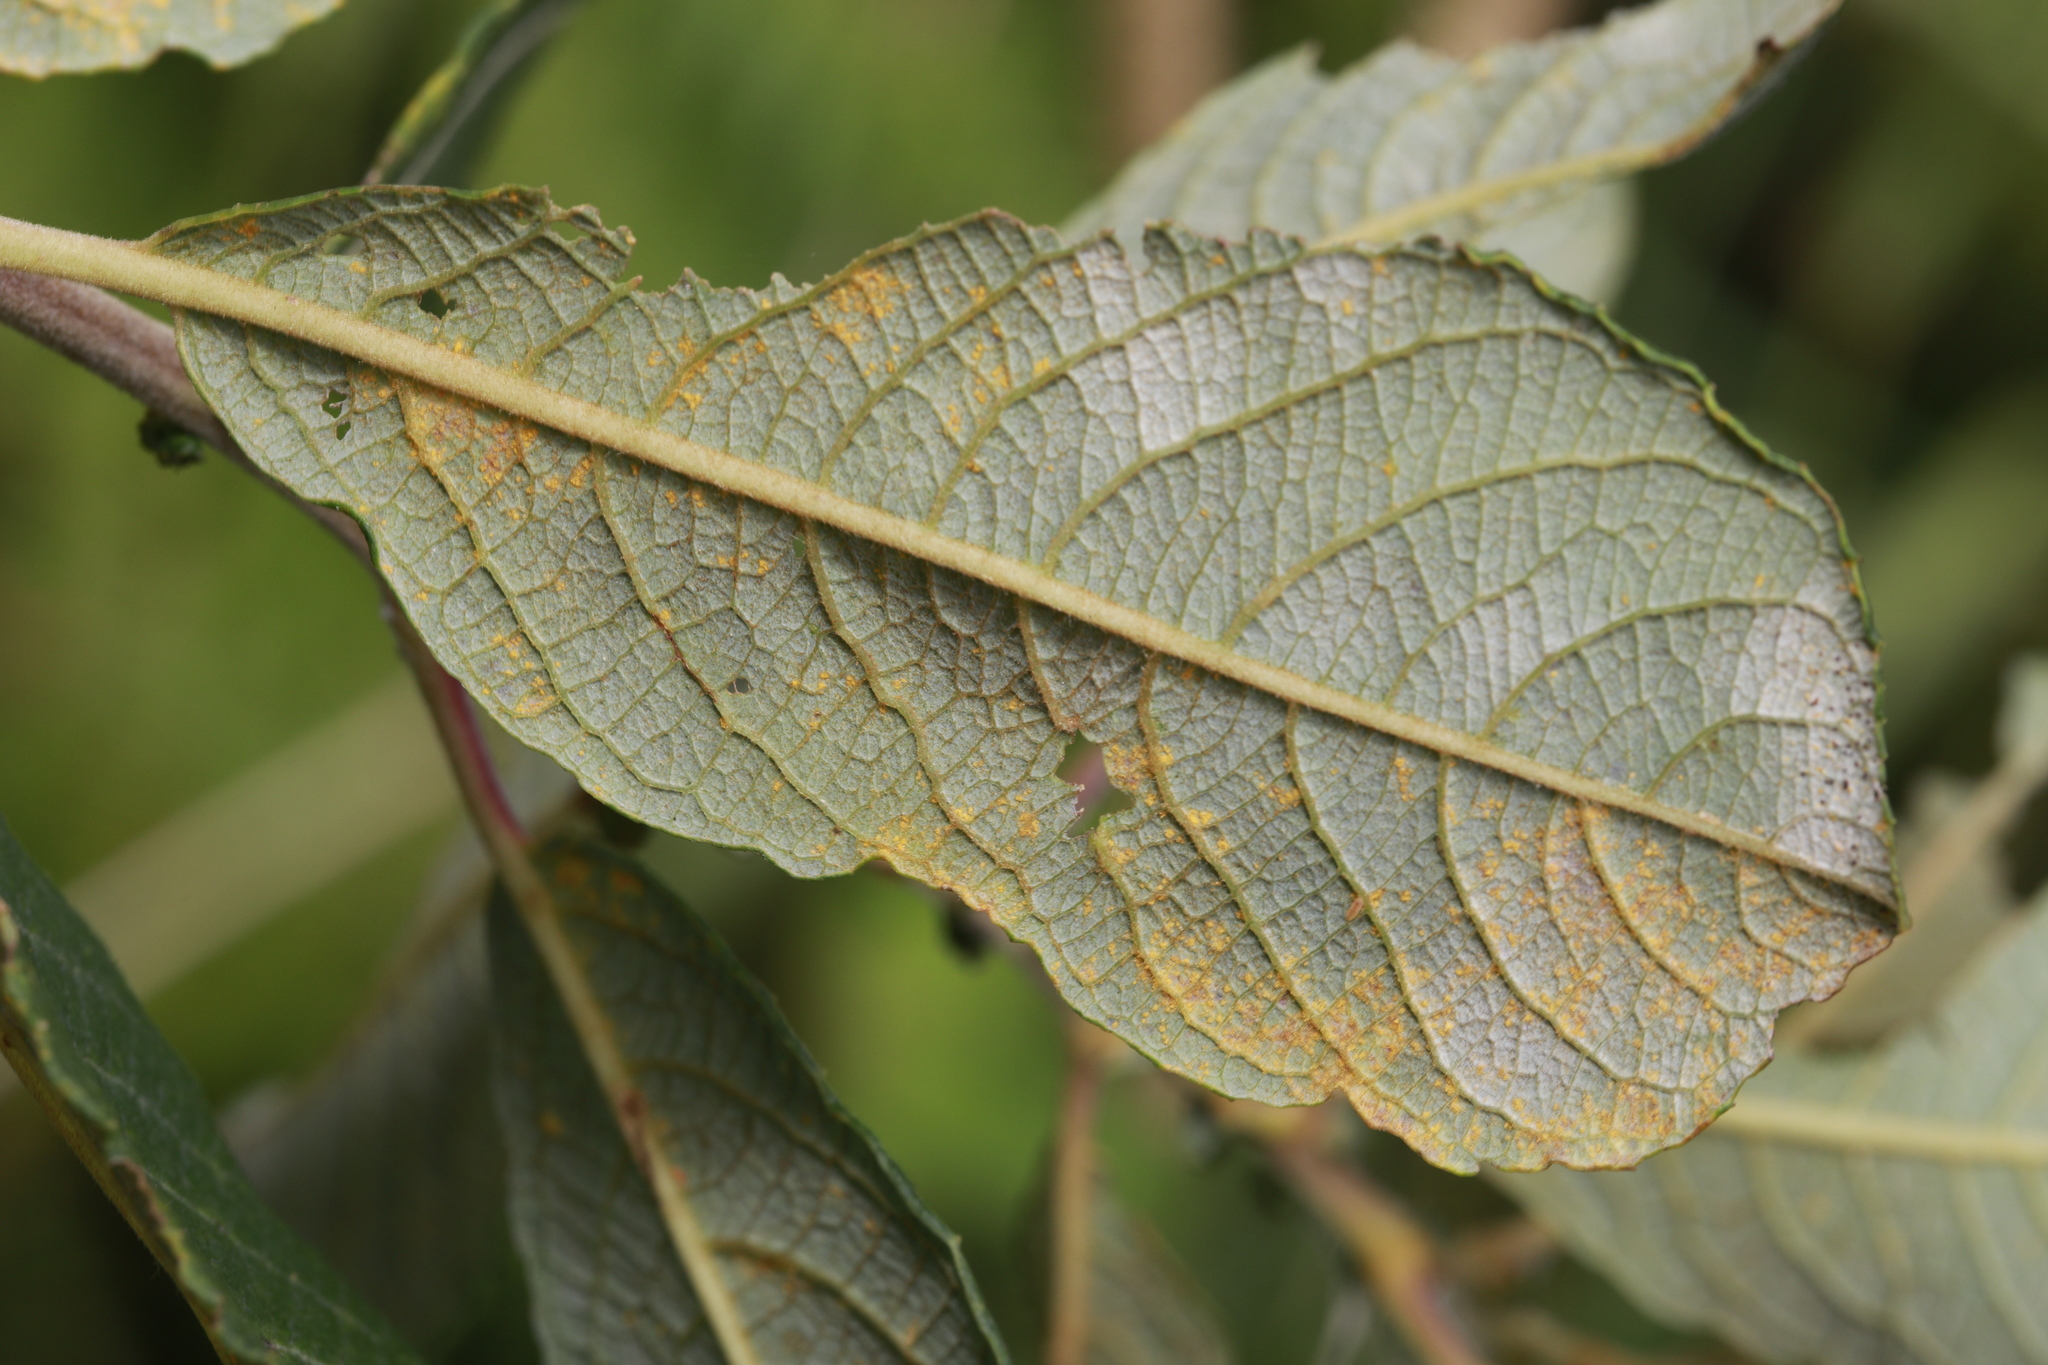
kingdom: Plantae
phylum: Tracheophyta
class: Magnoliopsida
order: Malpighiales
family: Salicaceae
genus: Salix
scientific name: Salix cinerea
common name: Common sallow
